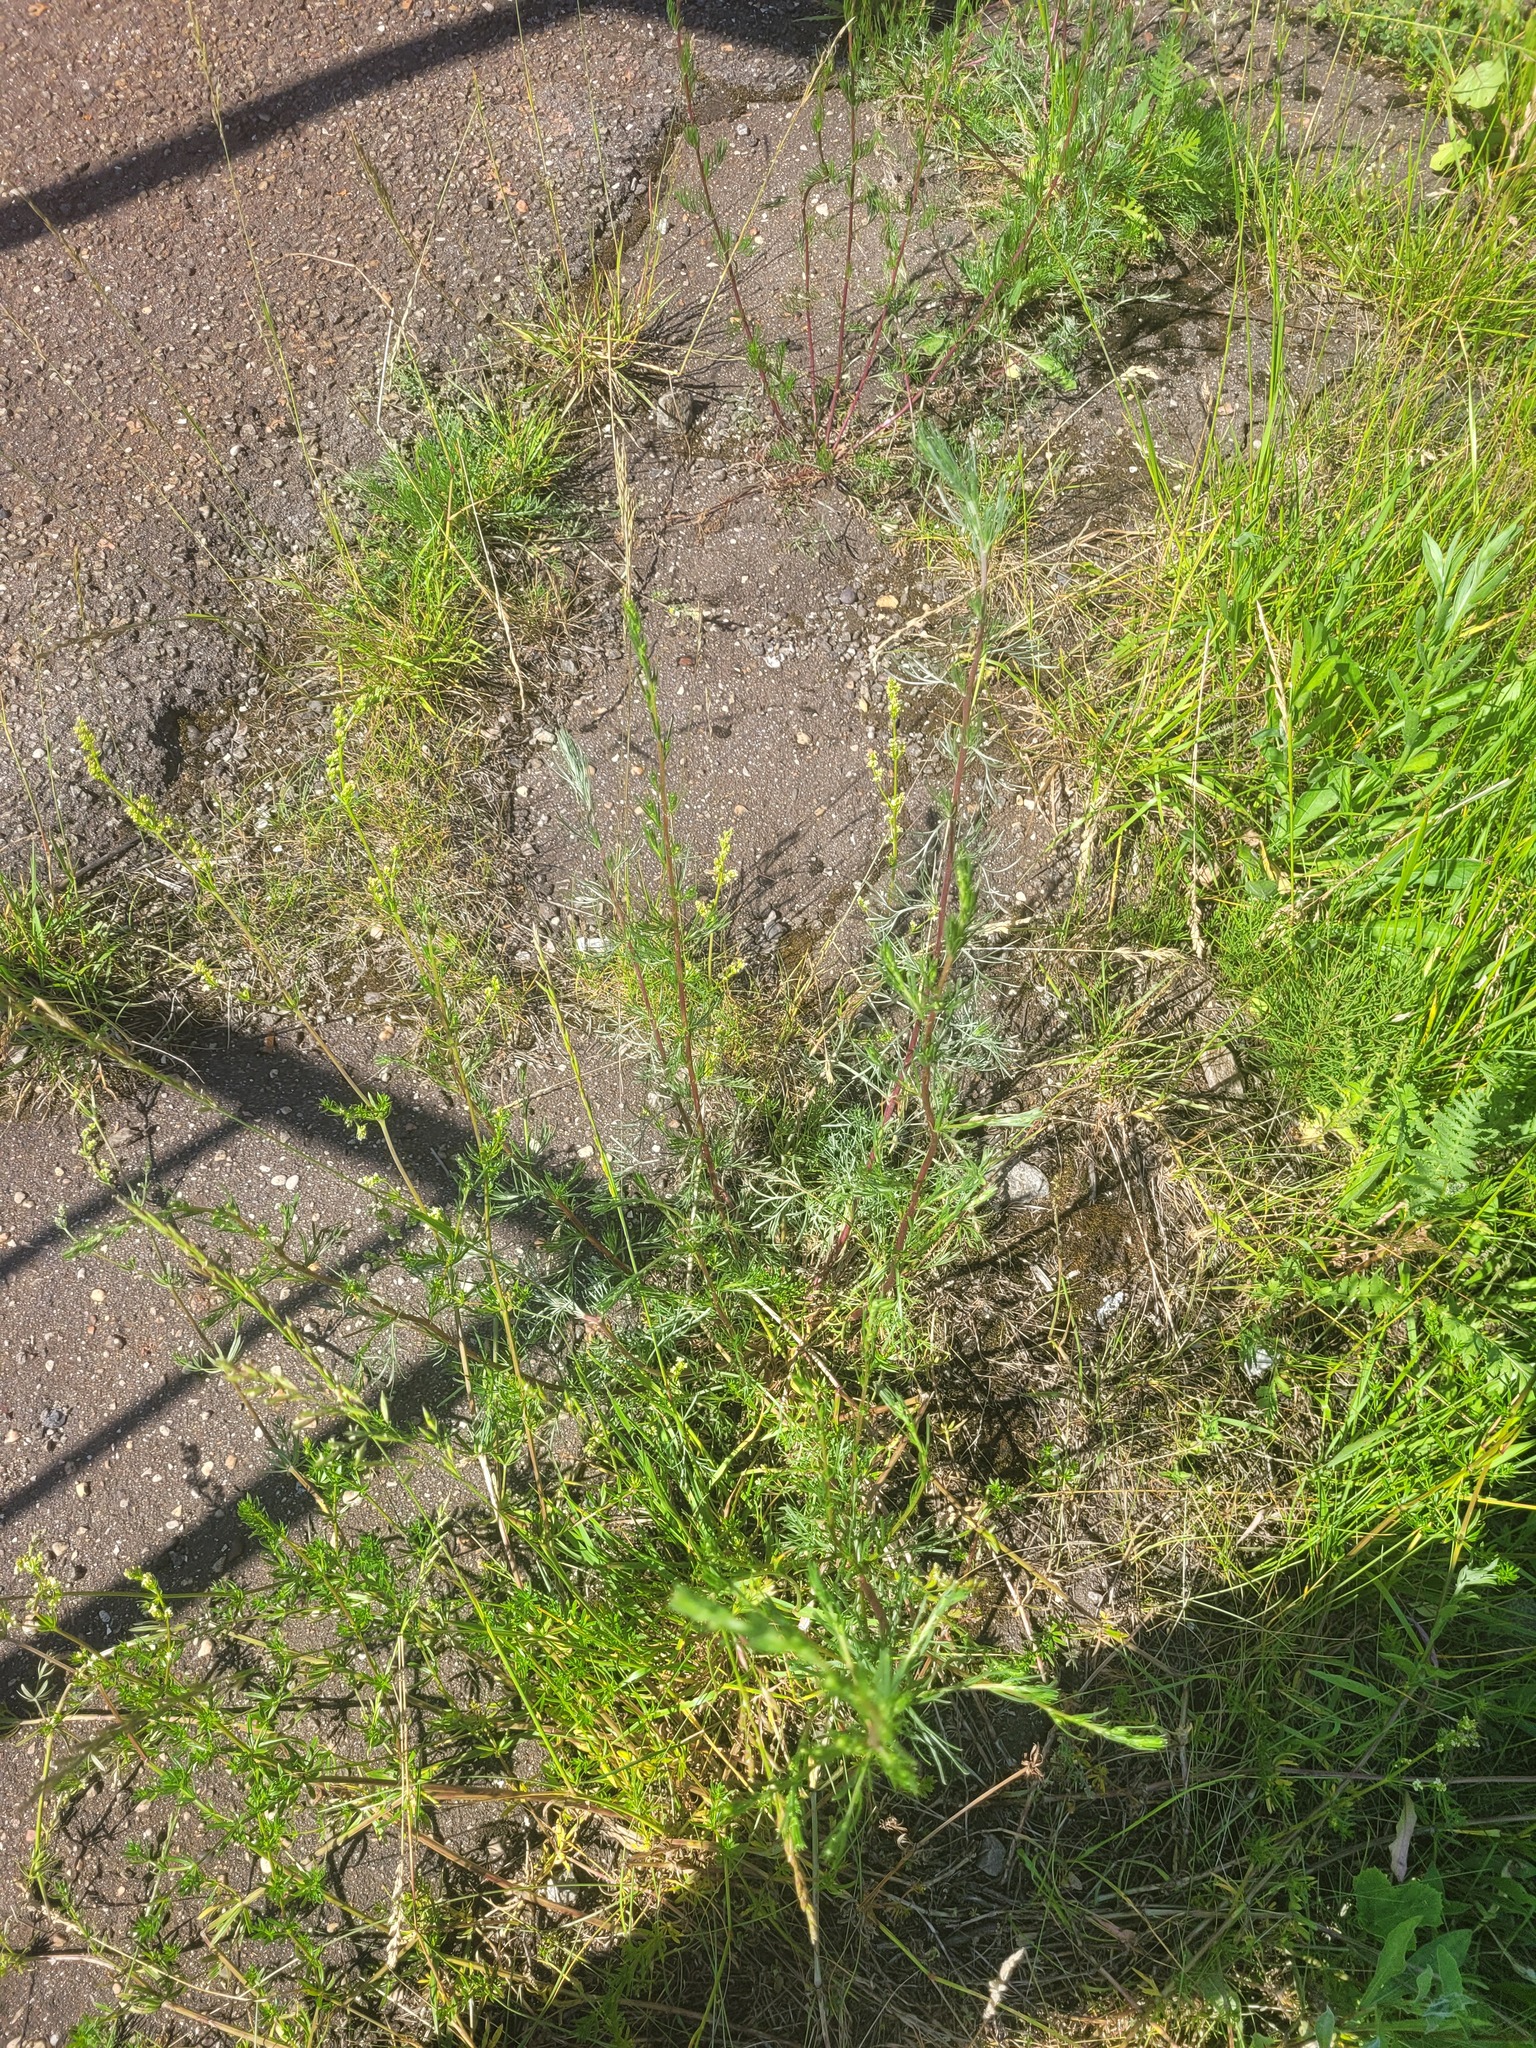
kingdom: Plantae
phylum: Tracheophyta
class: Magnoliopsida
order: Asterales
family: Asteraceae
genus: Artemisia
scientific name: Artemisia campestris
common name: Field wormwood
